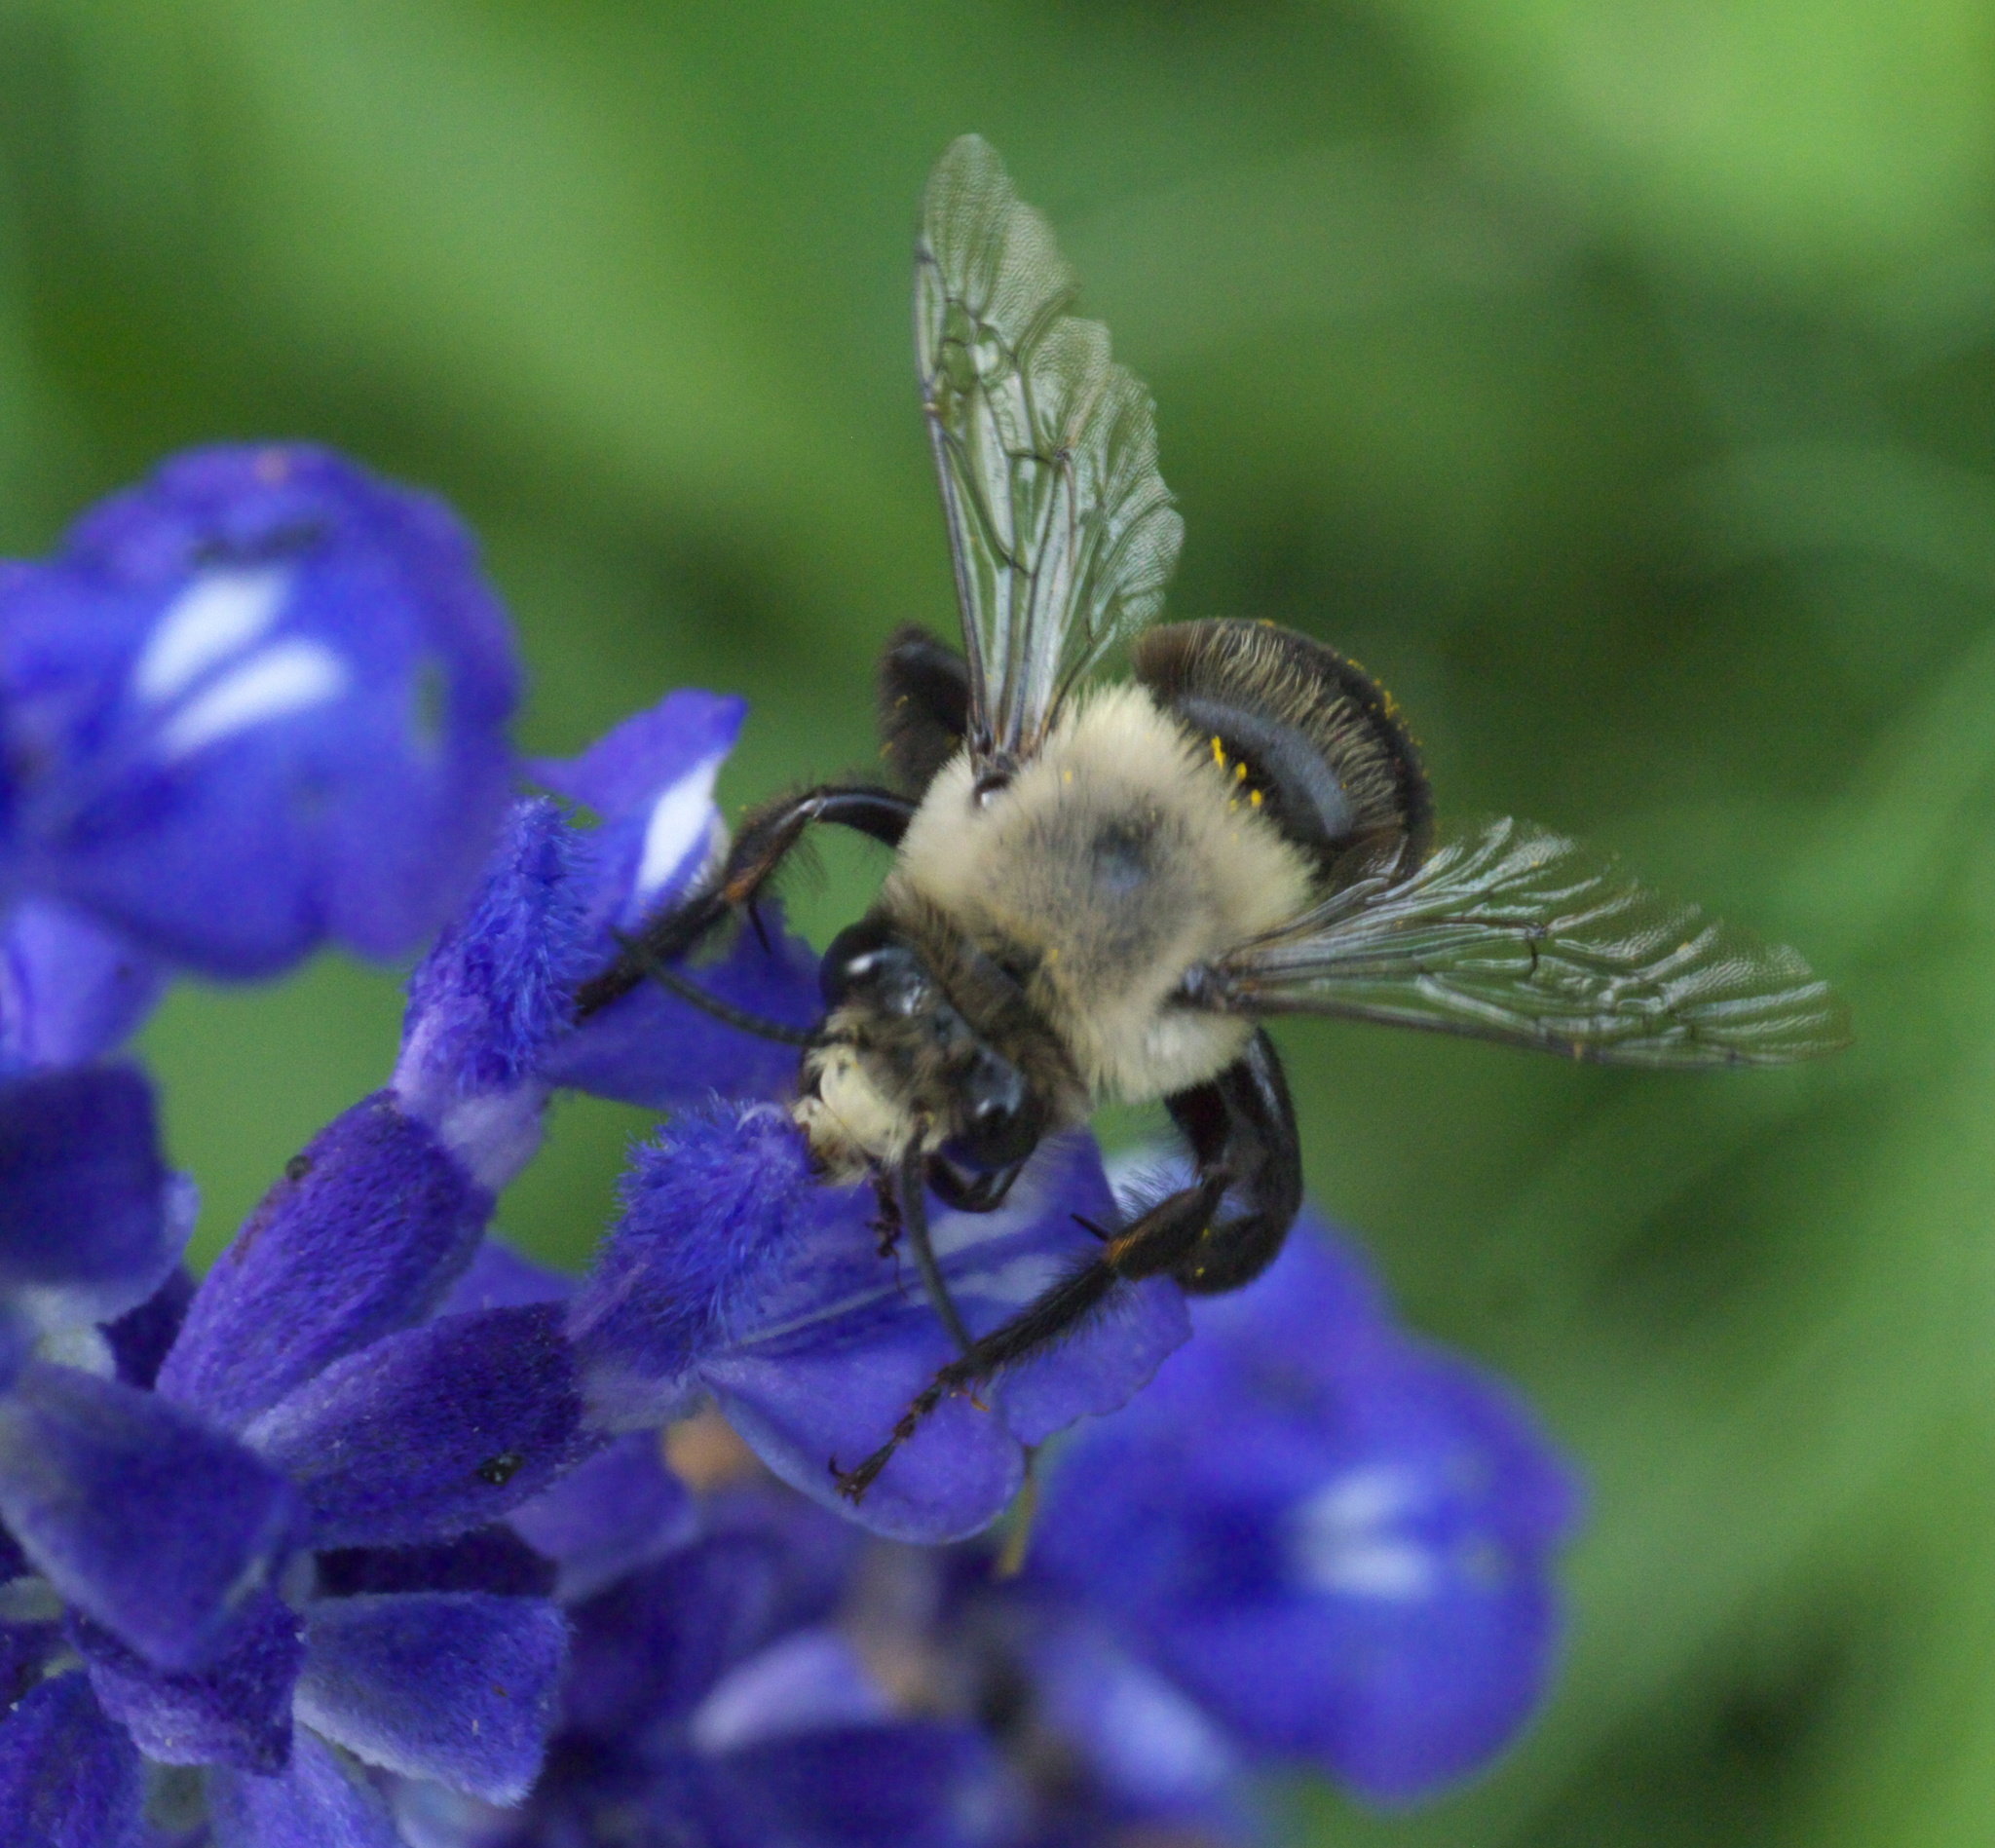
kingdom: Animalia
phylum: Arthropoda
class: Insecta
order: Hymenoptera
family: Apidae
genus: Anthophora
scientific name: Anthophora abrupta
